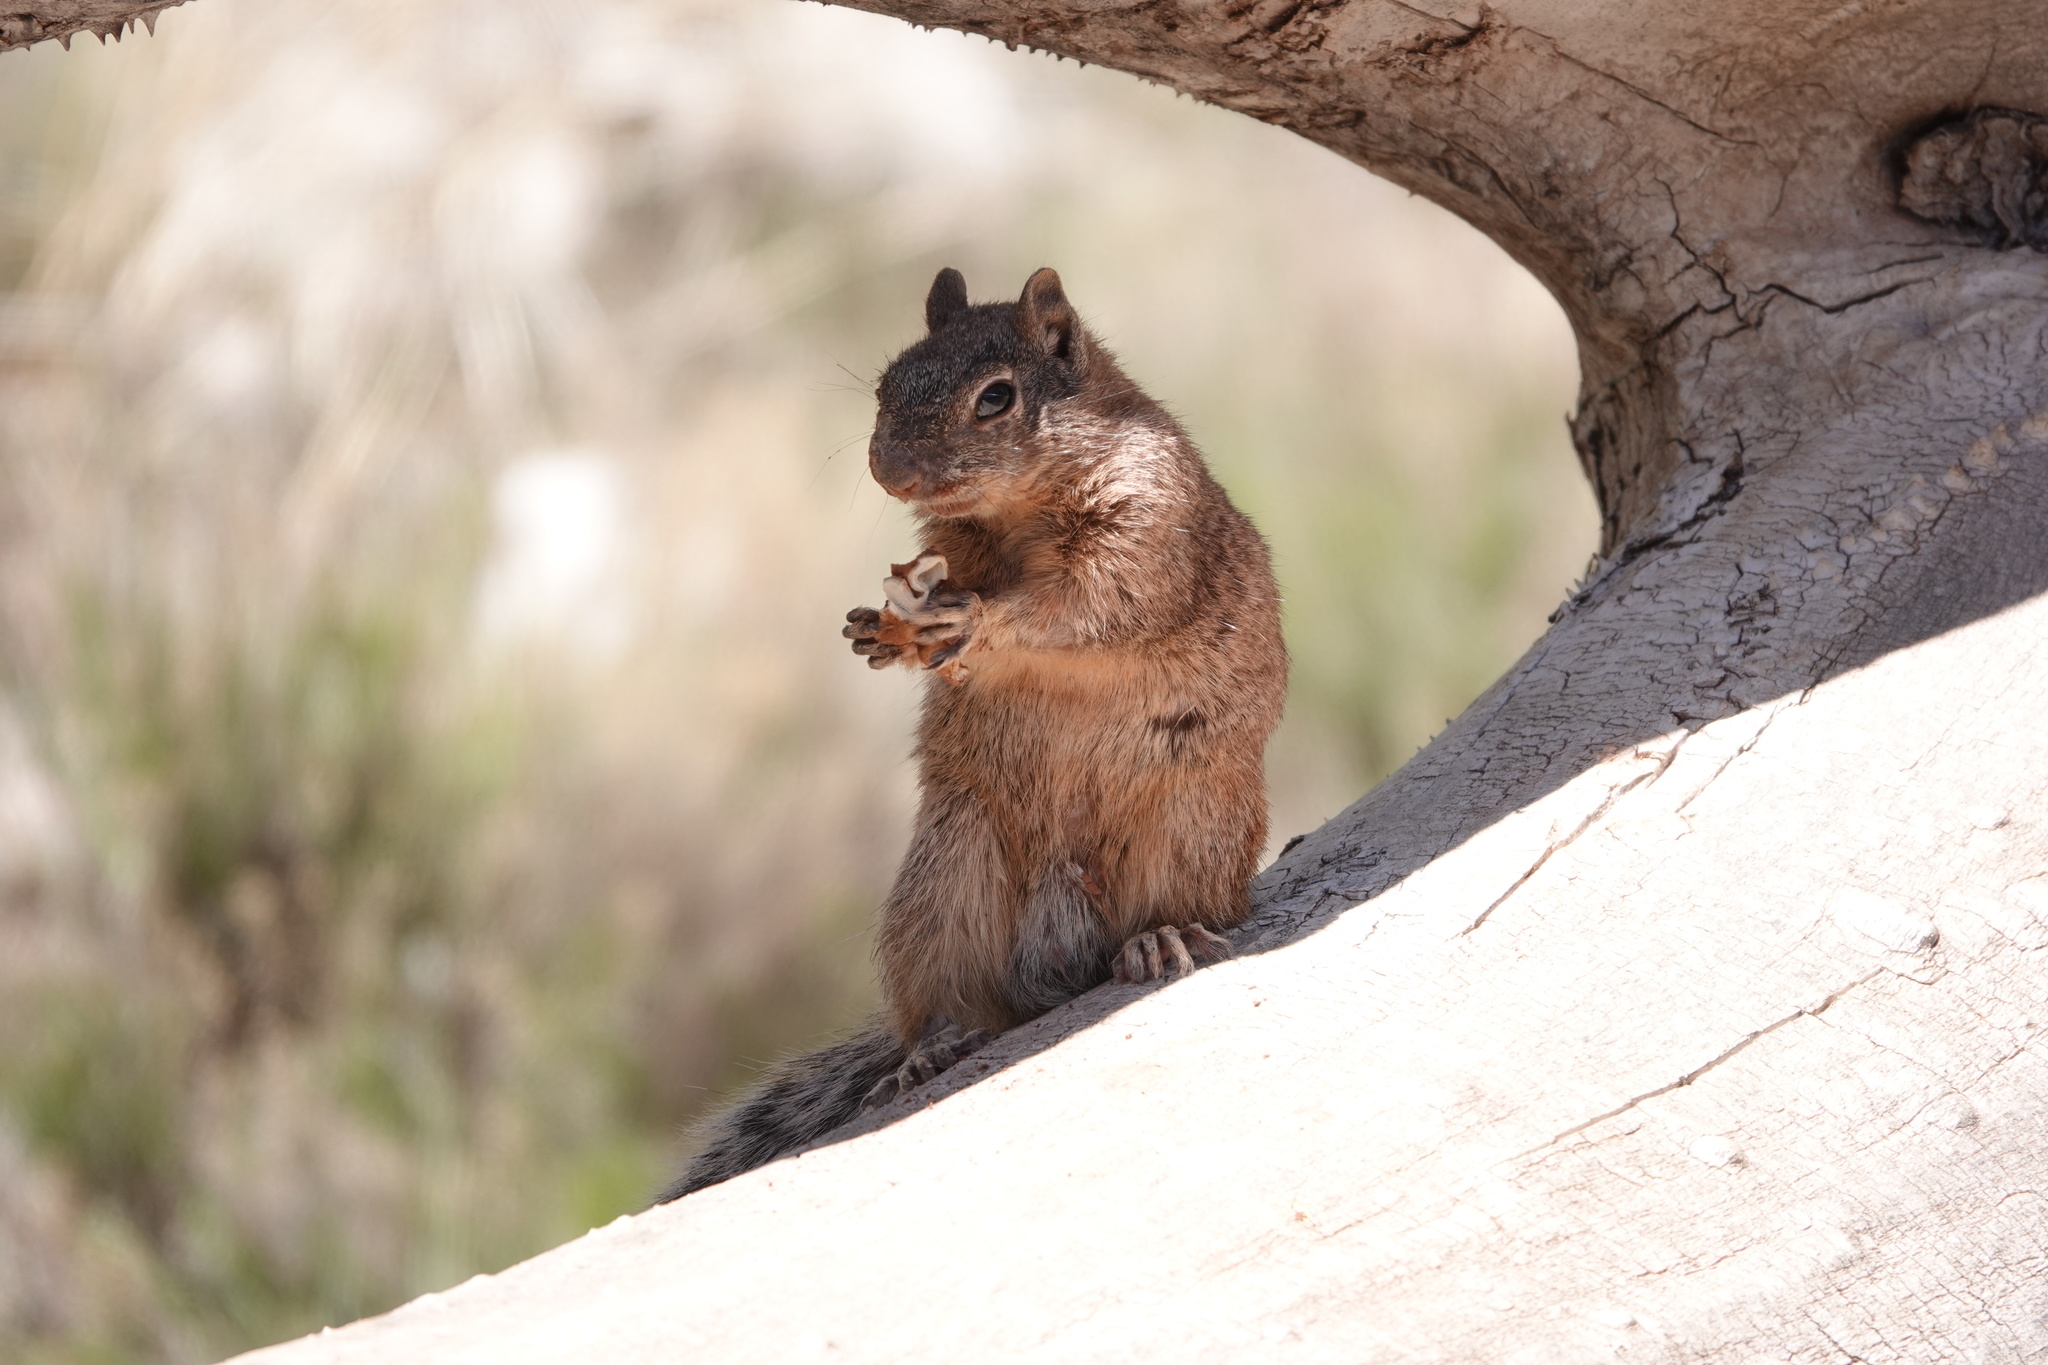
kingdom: Animalia
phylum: Chordata
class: Mammalia
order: Rodentia
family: Sciuridae
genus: Otospermophilus
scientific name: Otospermophilus variegatus
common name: Rock squirrel
